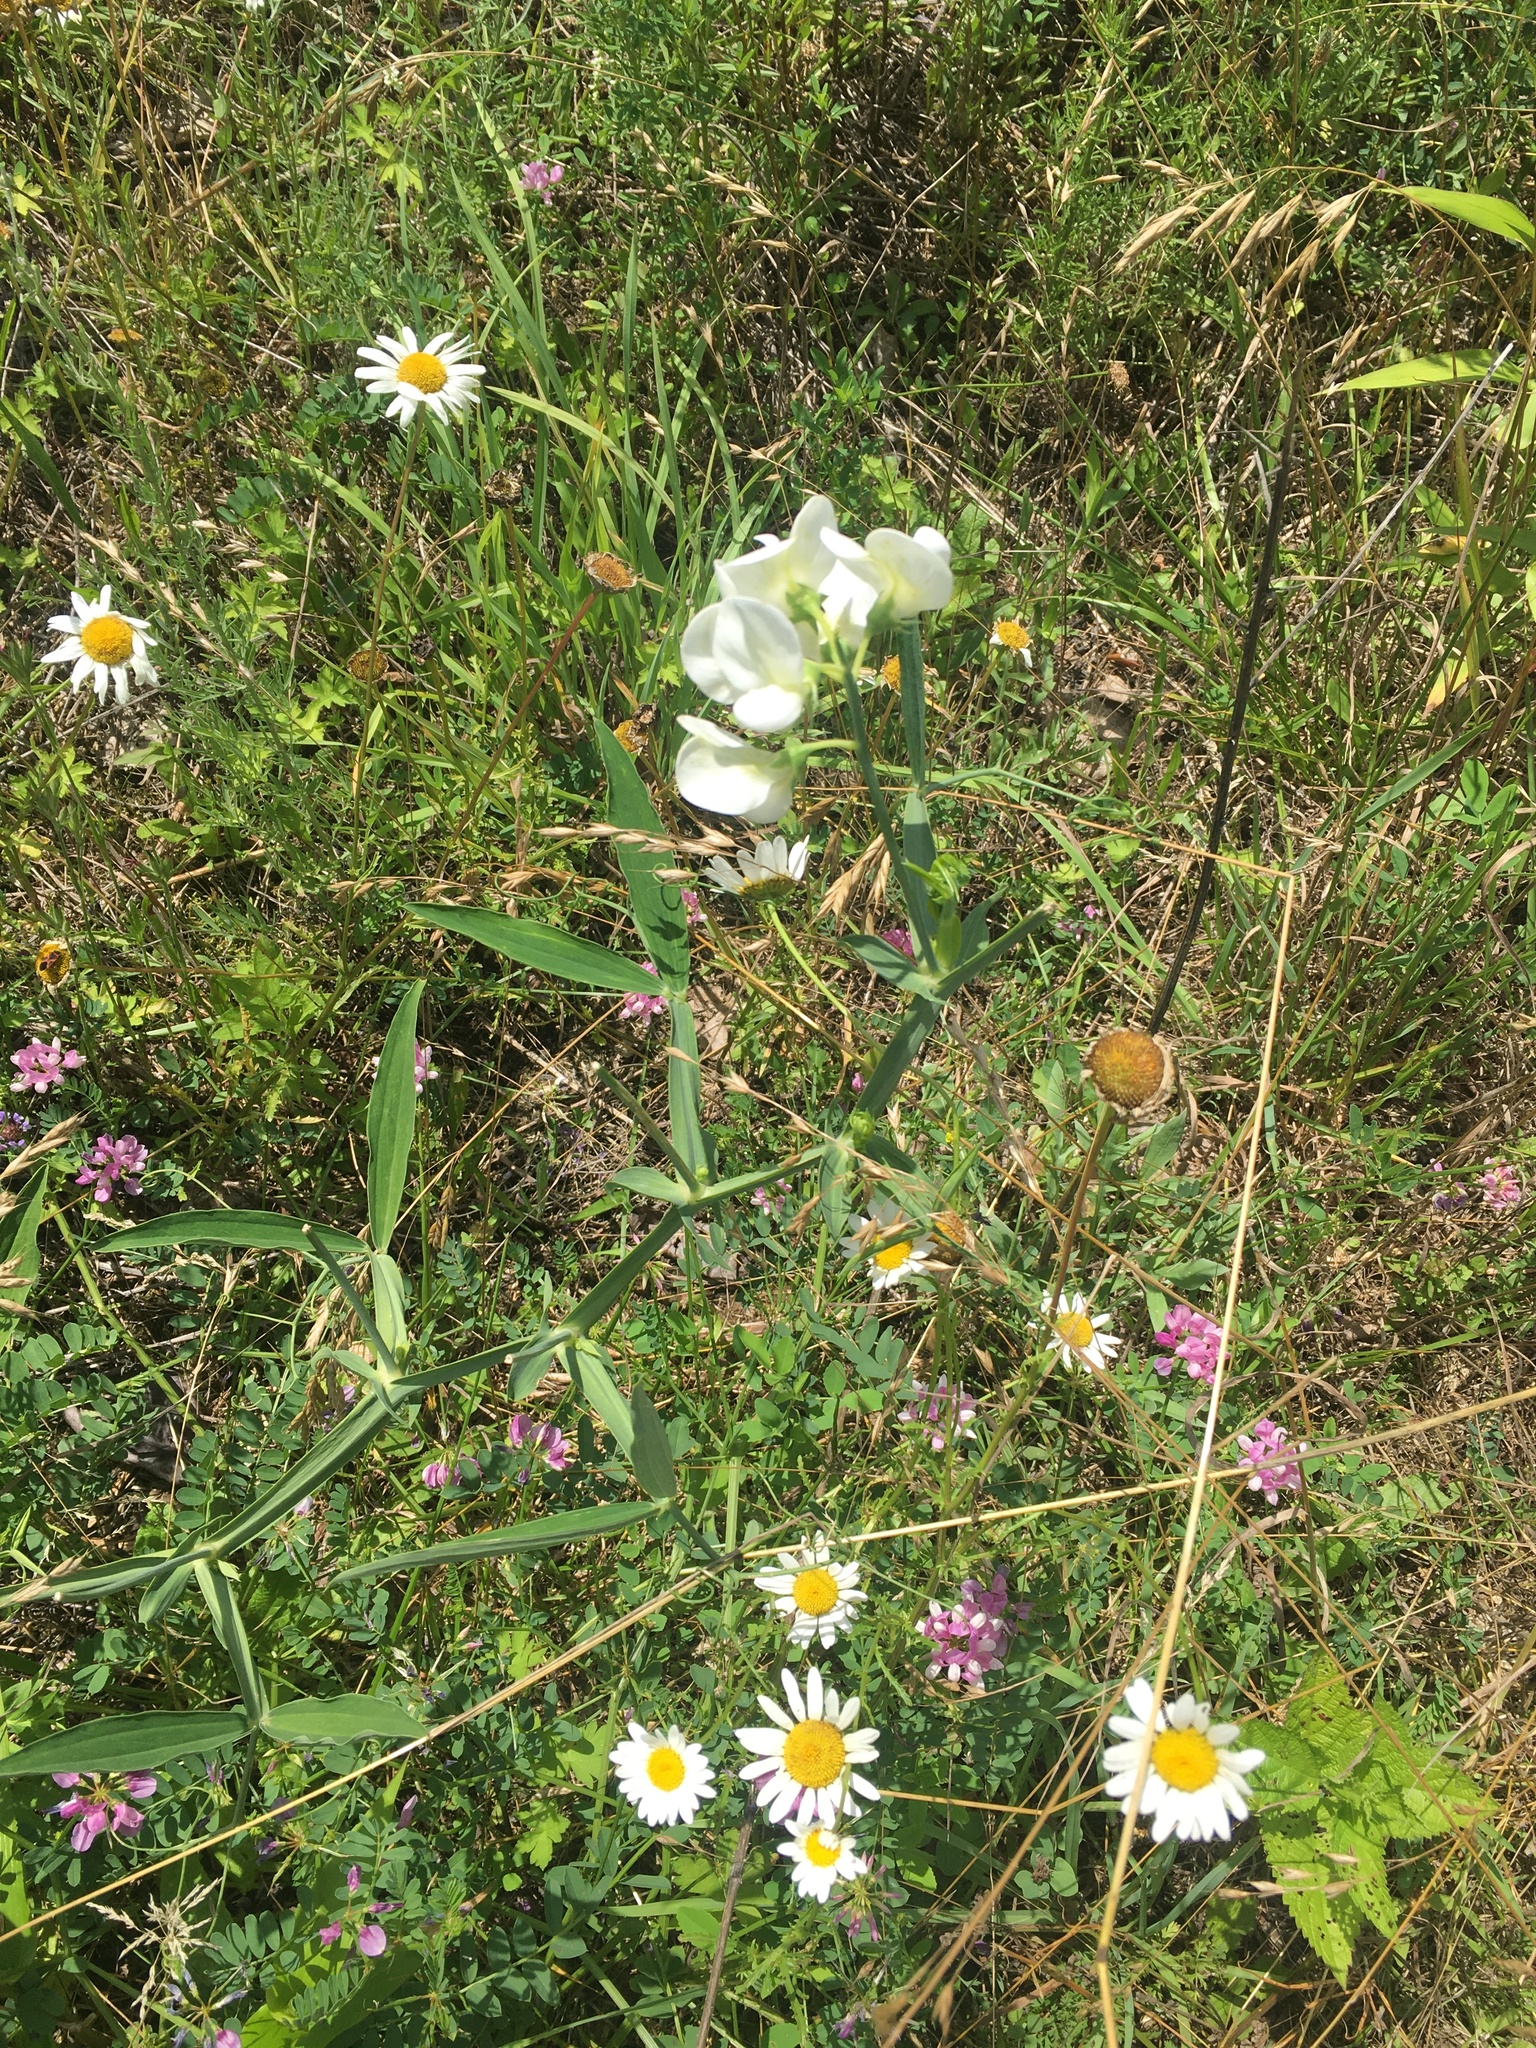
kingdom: Plantae
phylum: Tracheophyta
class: Magnoliopsida
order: Fabales
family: Fabaceae
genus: Lathyrus
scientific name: Lathyrus latifolius
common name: Perennial pea
